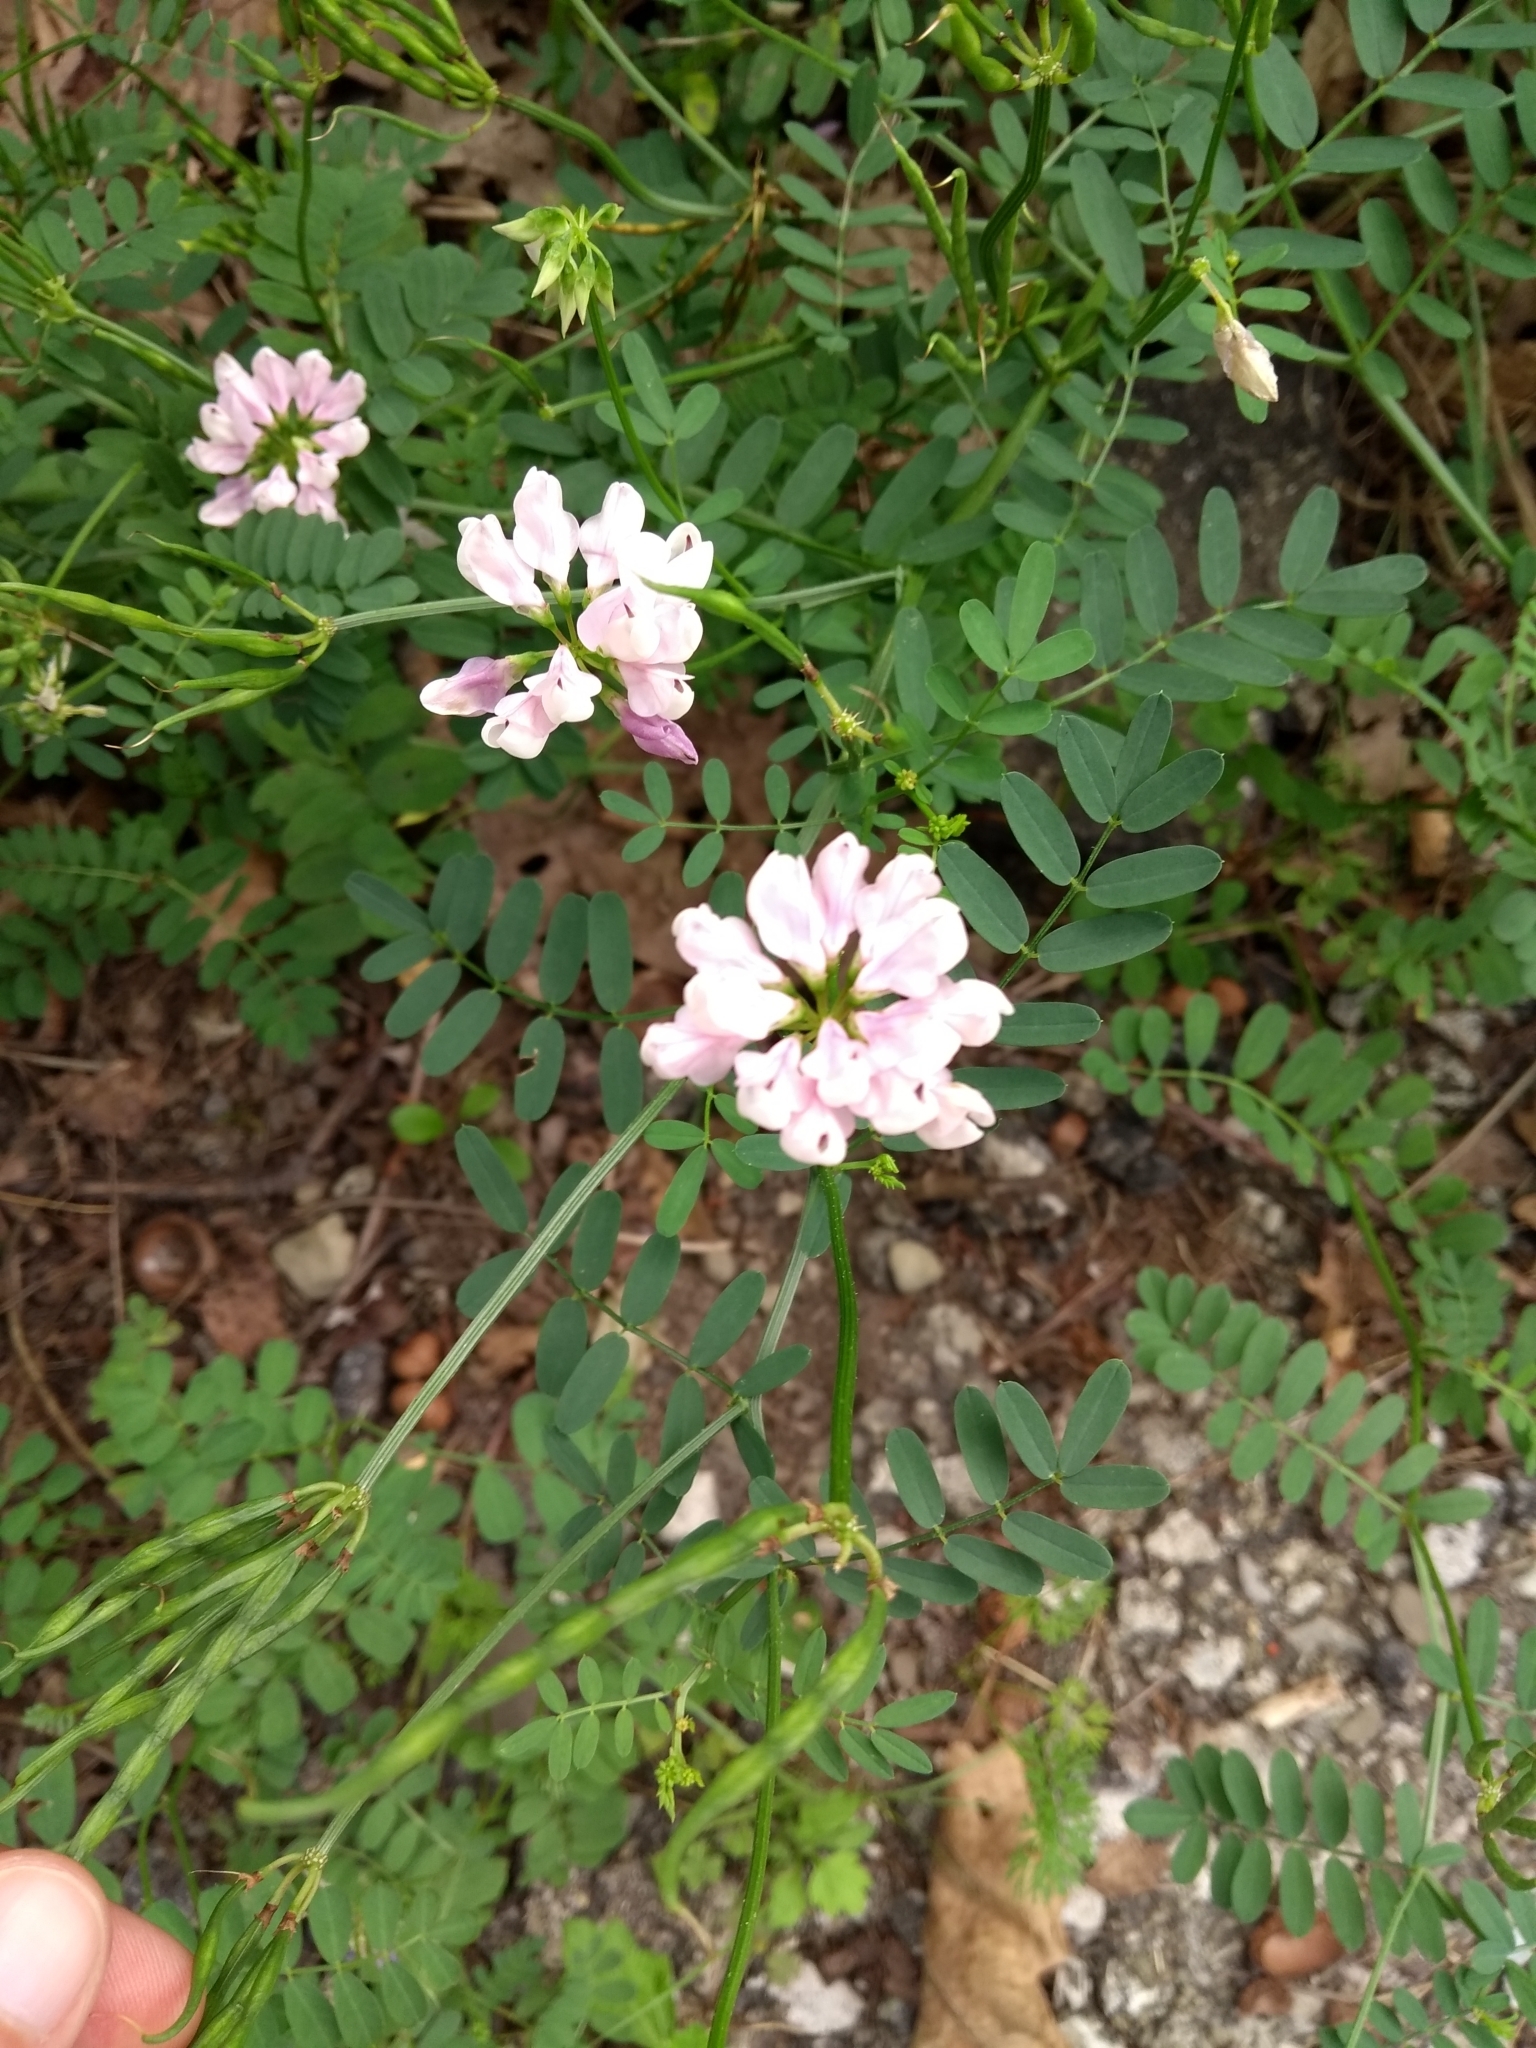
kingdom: Plantae
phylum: Tracheophyta
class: Magnoliopsida
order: Fabales
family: Fabaceae
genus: Coronilla
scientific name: Coronilla varia
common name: Crownvetch
